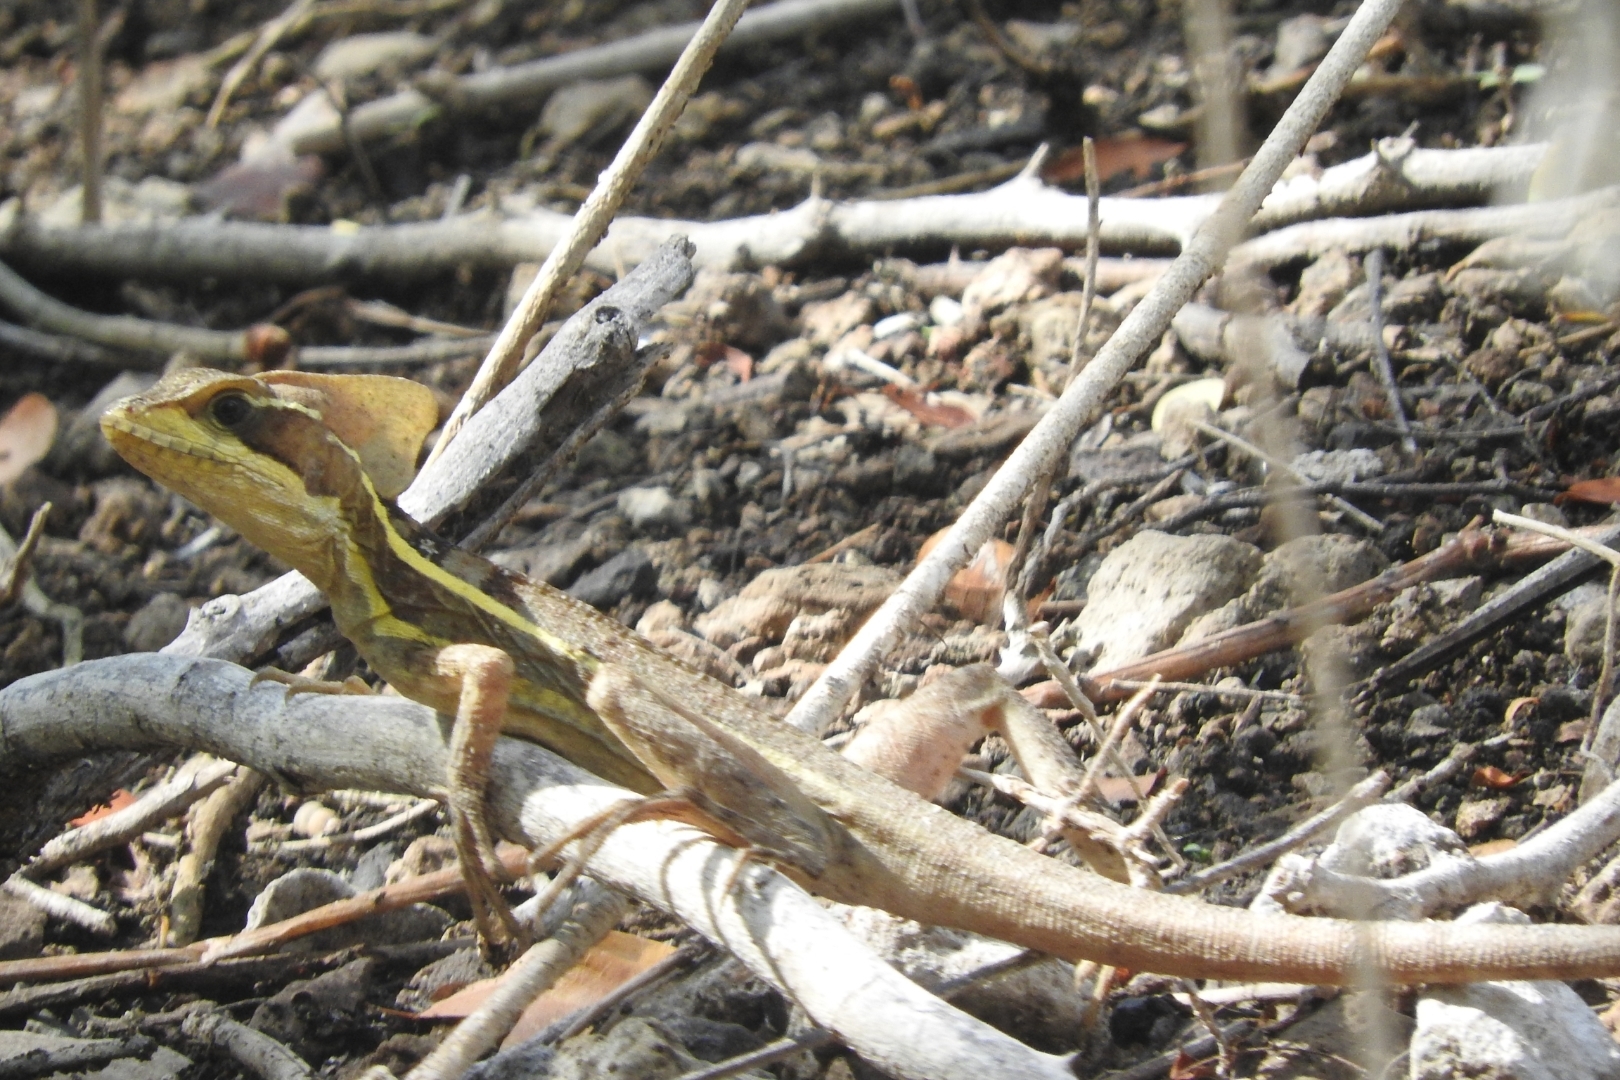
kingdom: Animalia
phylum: Chordata
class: Squamata
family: Corytophanidae
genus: Basiliscus
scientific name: Basiliscus vittatus
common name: Brown basilisk
